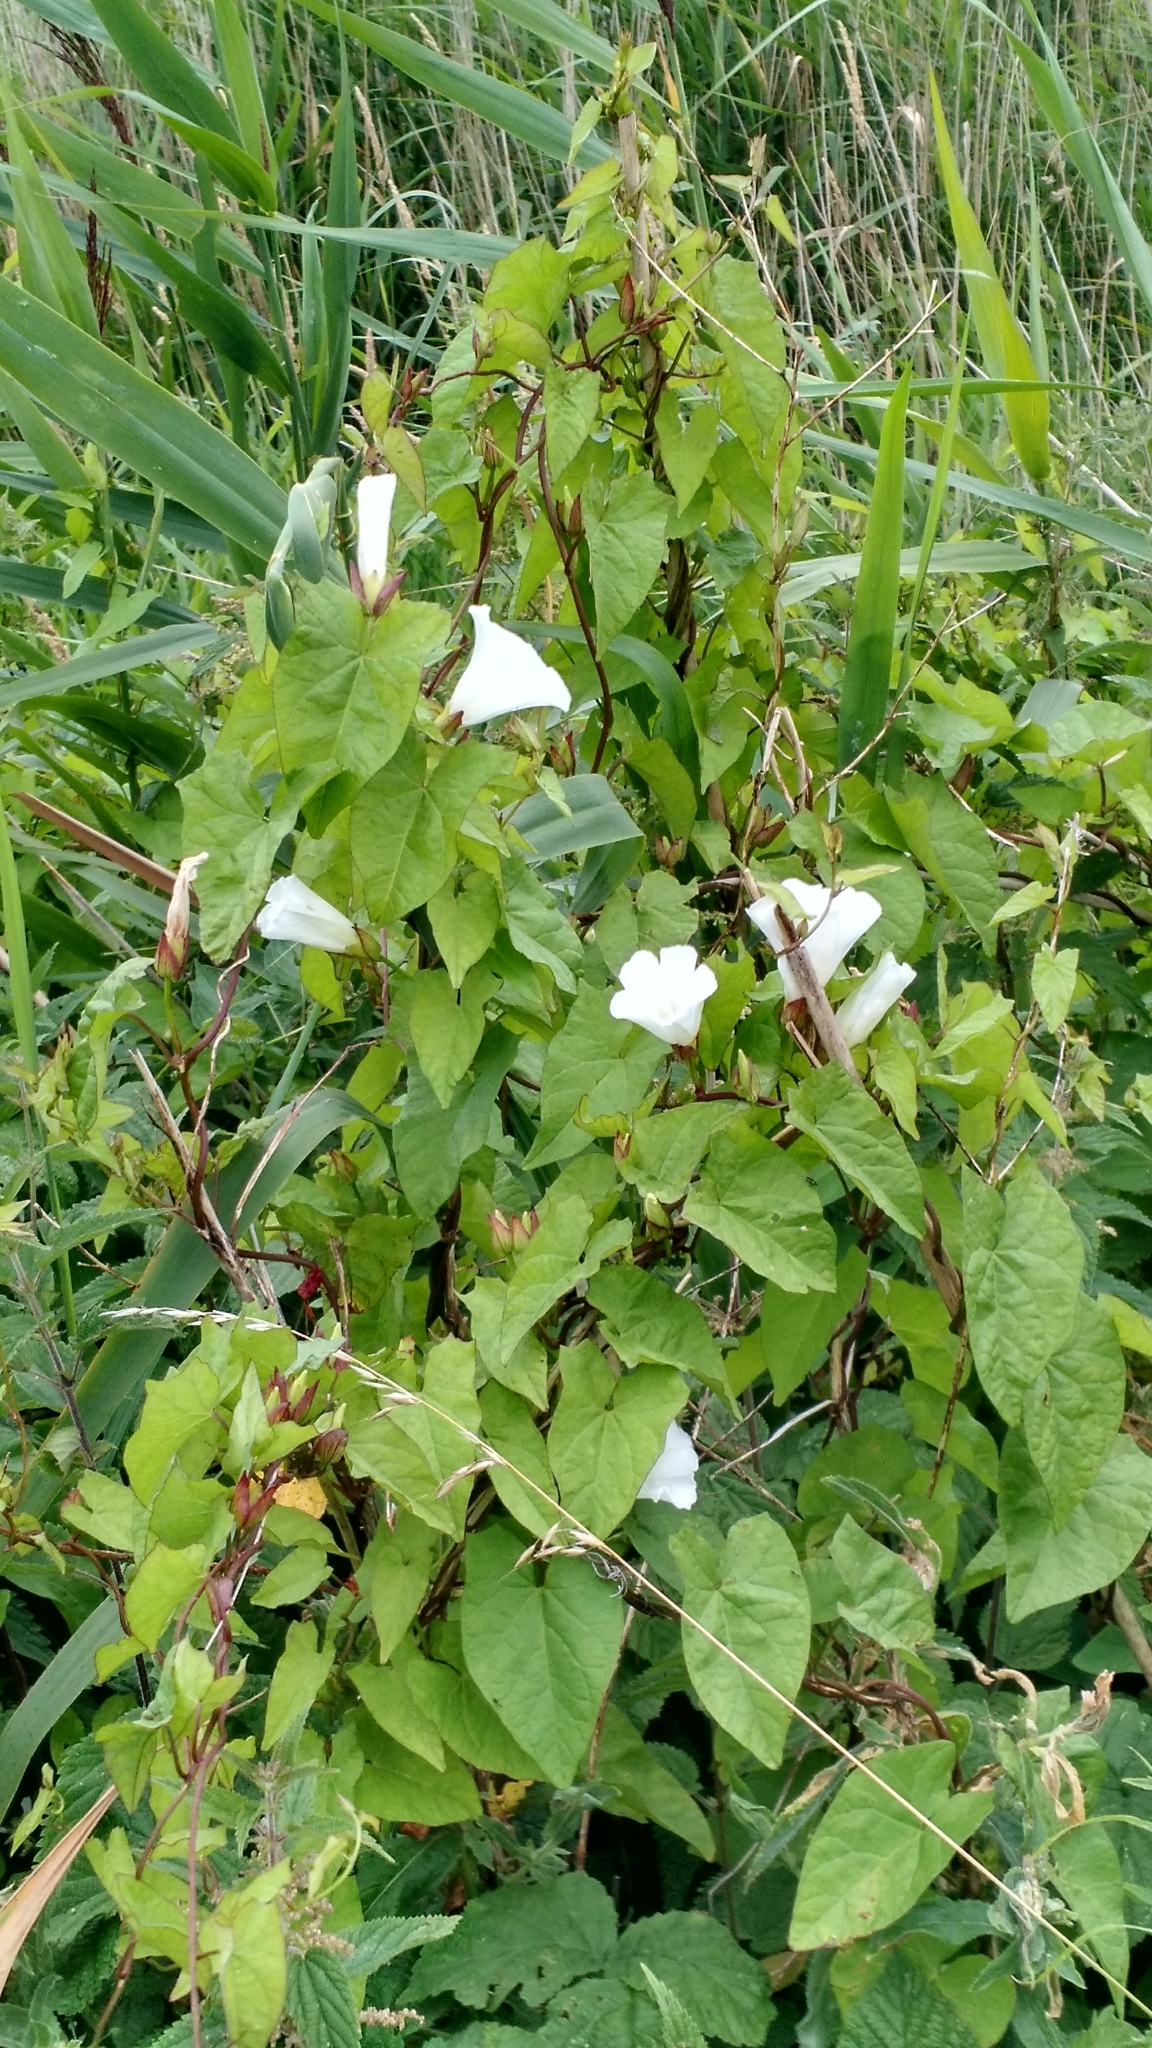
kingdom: Plantae
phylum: Tracheophyta
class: Magnoliopsida
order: Solanales
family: Convolvulaceae
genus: Calystegia
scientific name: Calystegia sepium
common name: Hedge bindweed
